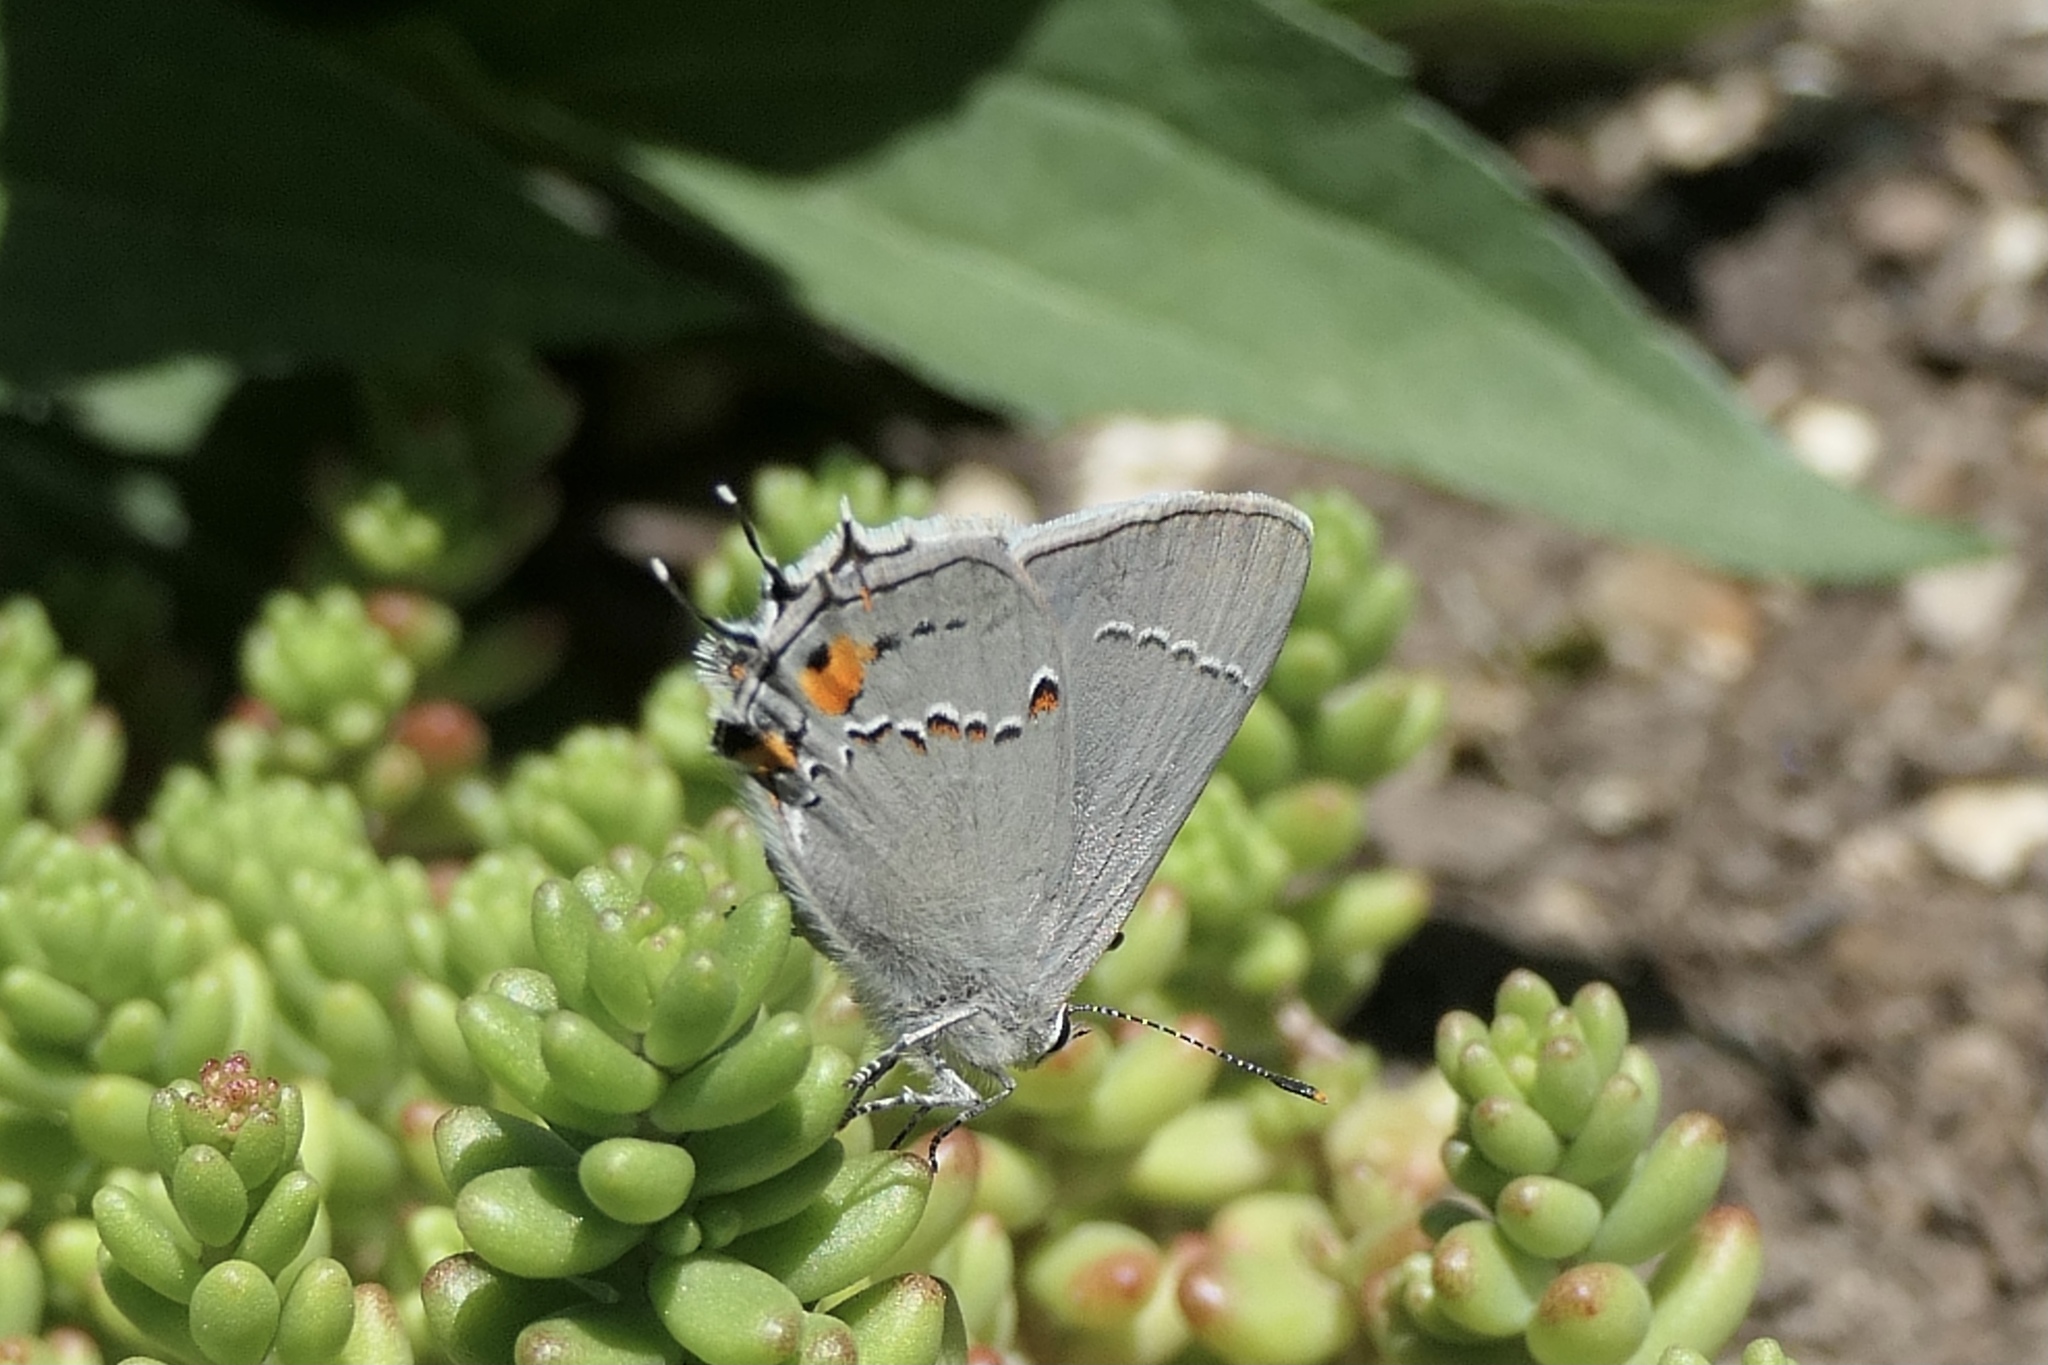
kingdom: Animalia
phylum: Arthropoda
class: Insecta
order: Lepidoptera
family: Lycaenidae
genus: Strymon
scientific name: Strymon melinus
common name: Gray hairstreak
